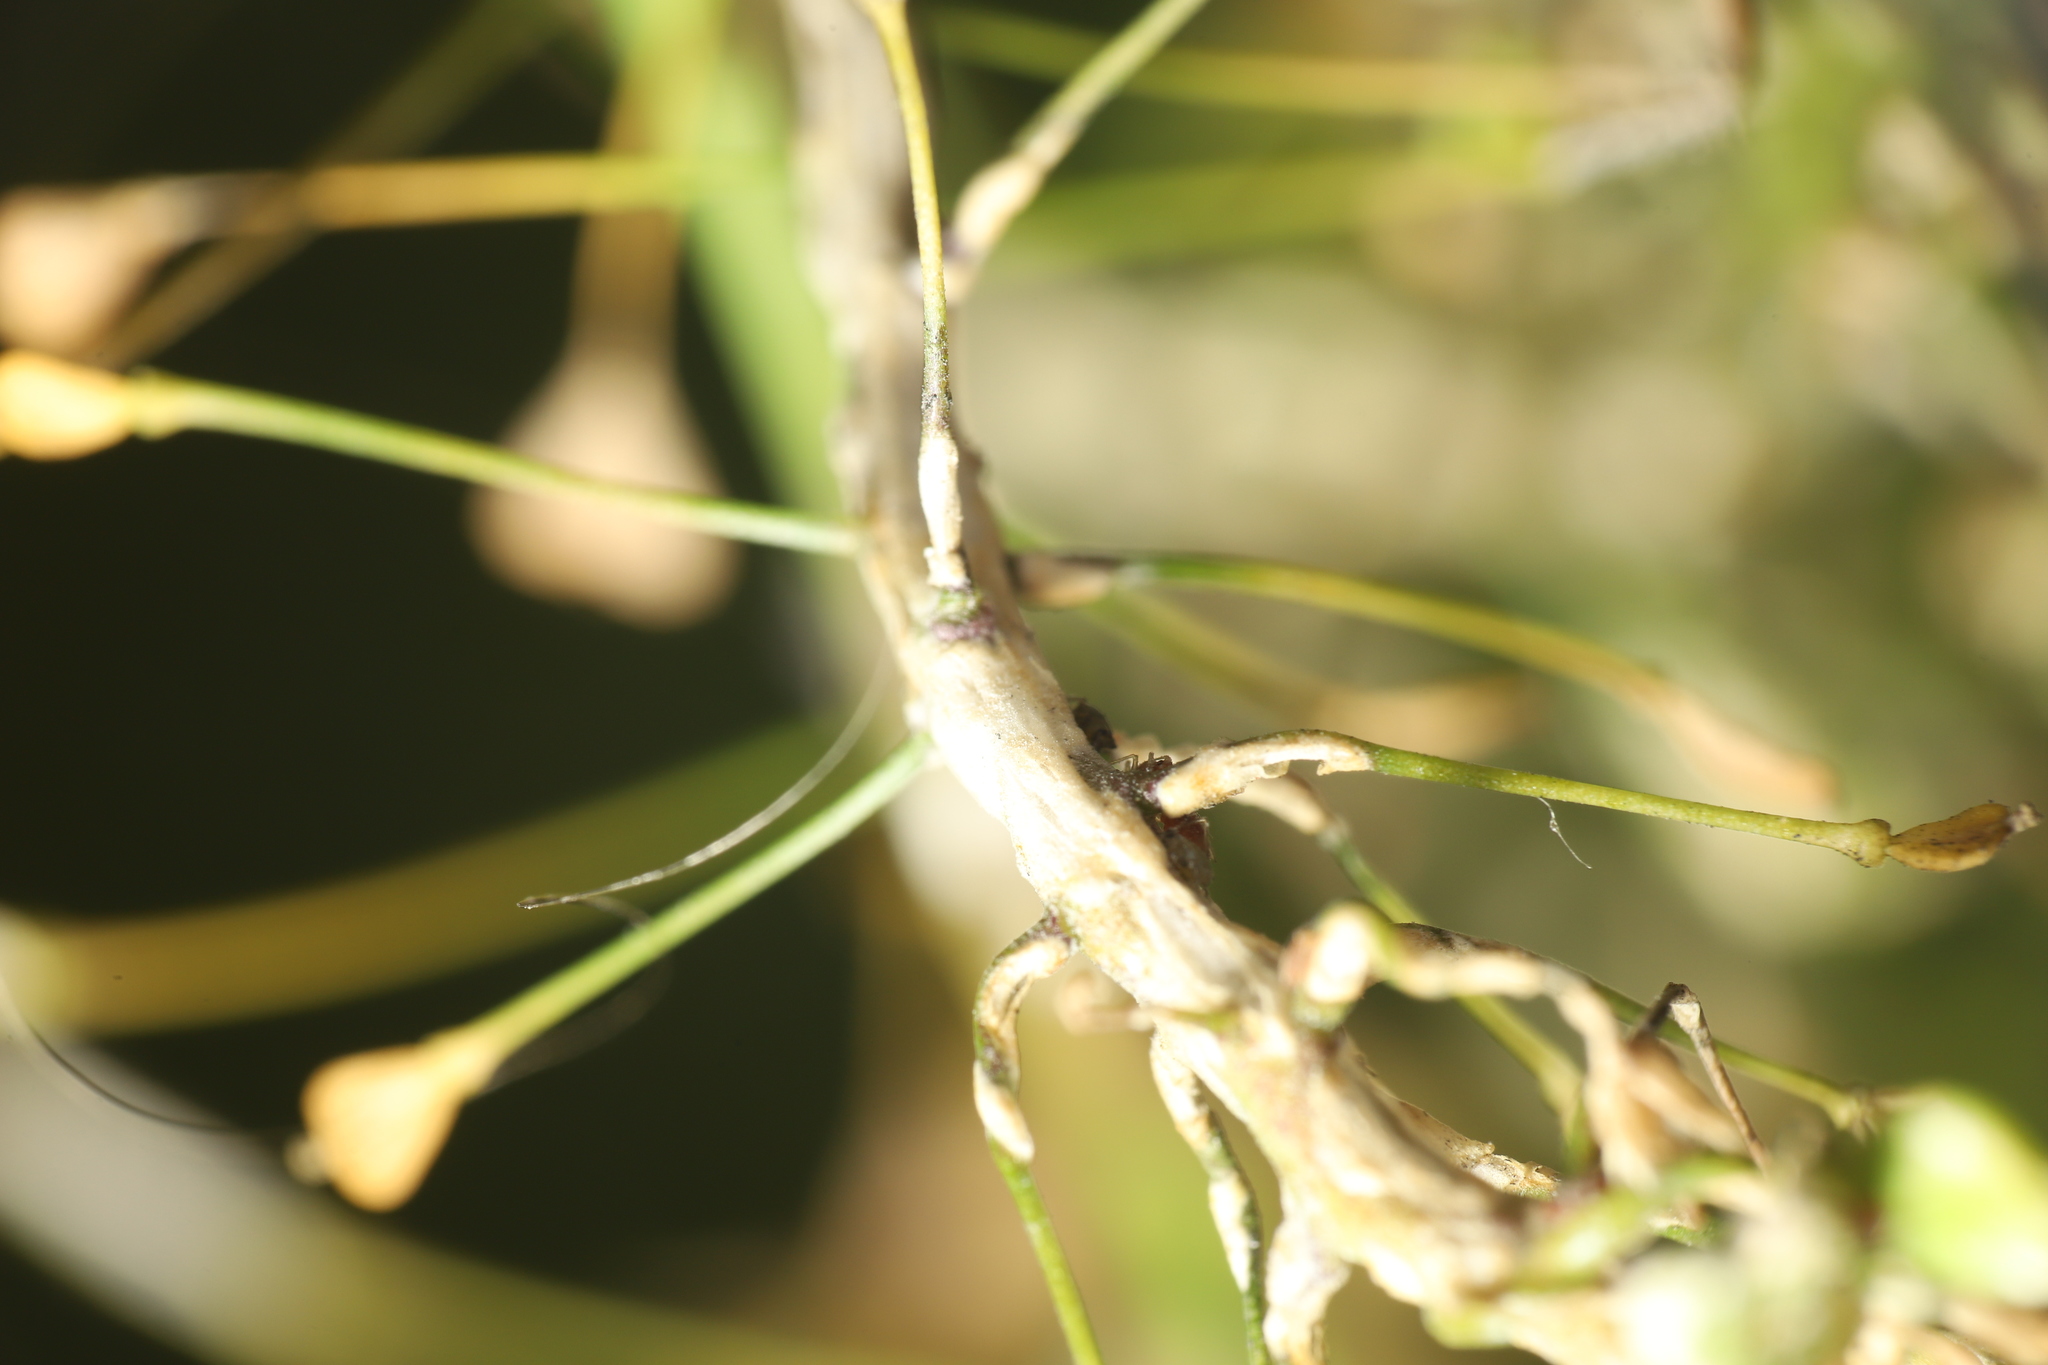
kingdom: Chromista
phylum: Oomycota
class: Peronosporea
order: Albuginales
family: Albuginaceae
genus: Albugo
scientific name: Albugo candida
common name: Crucifer white blister
